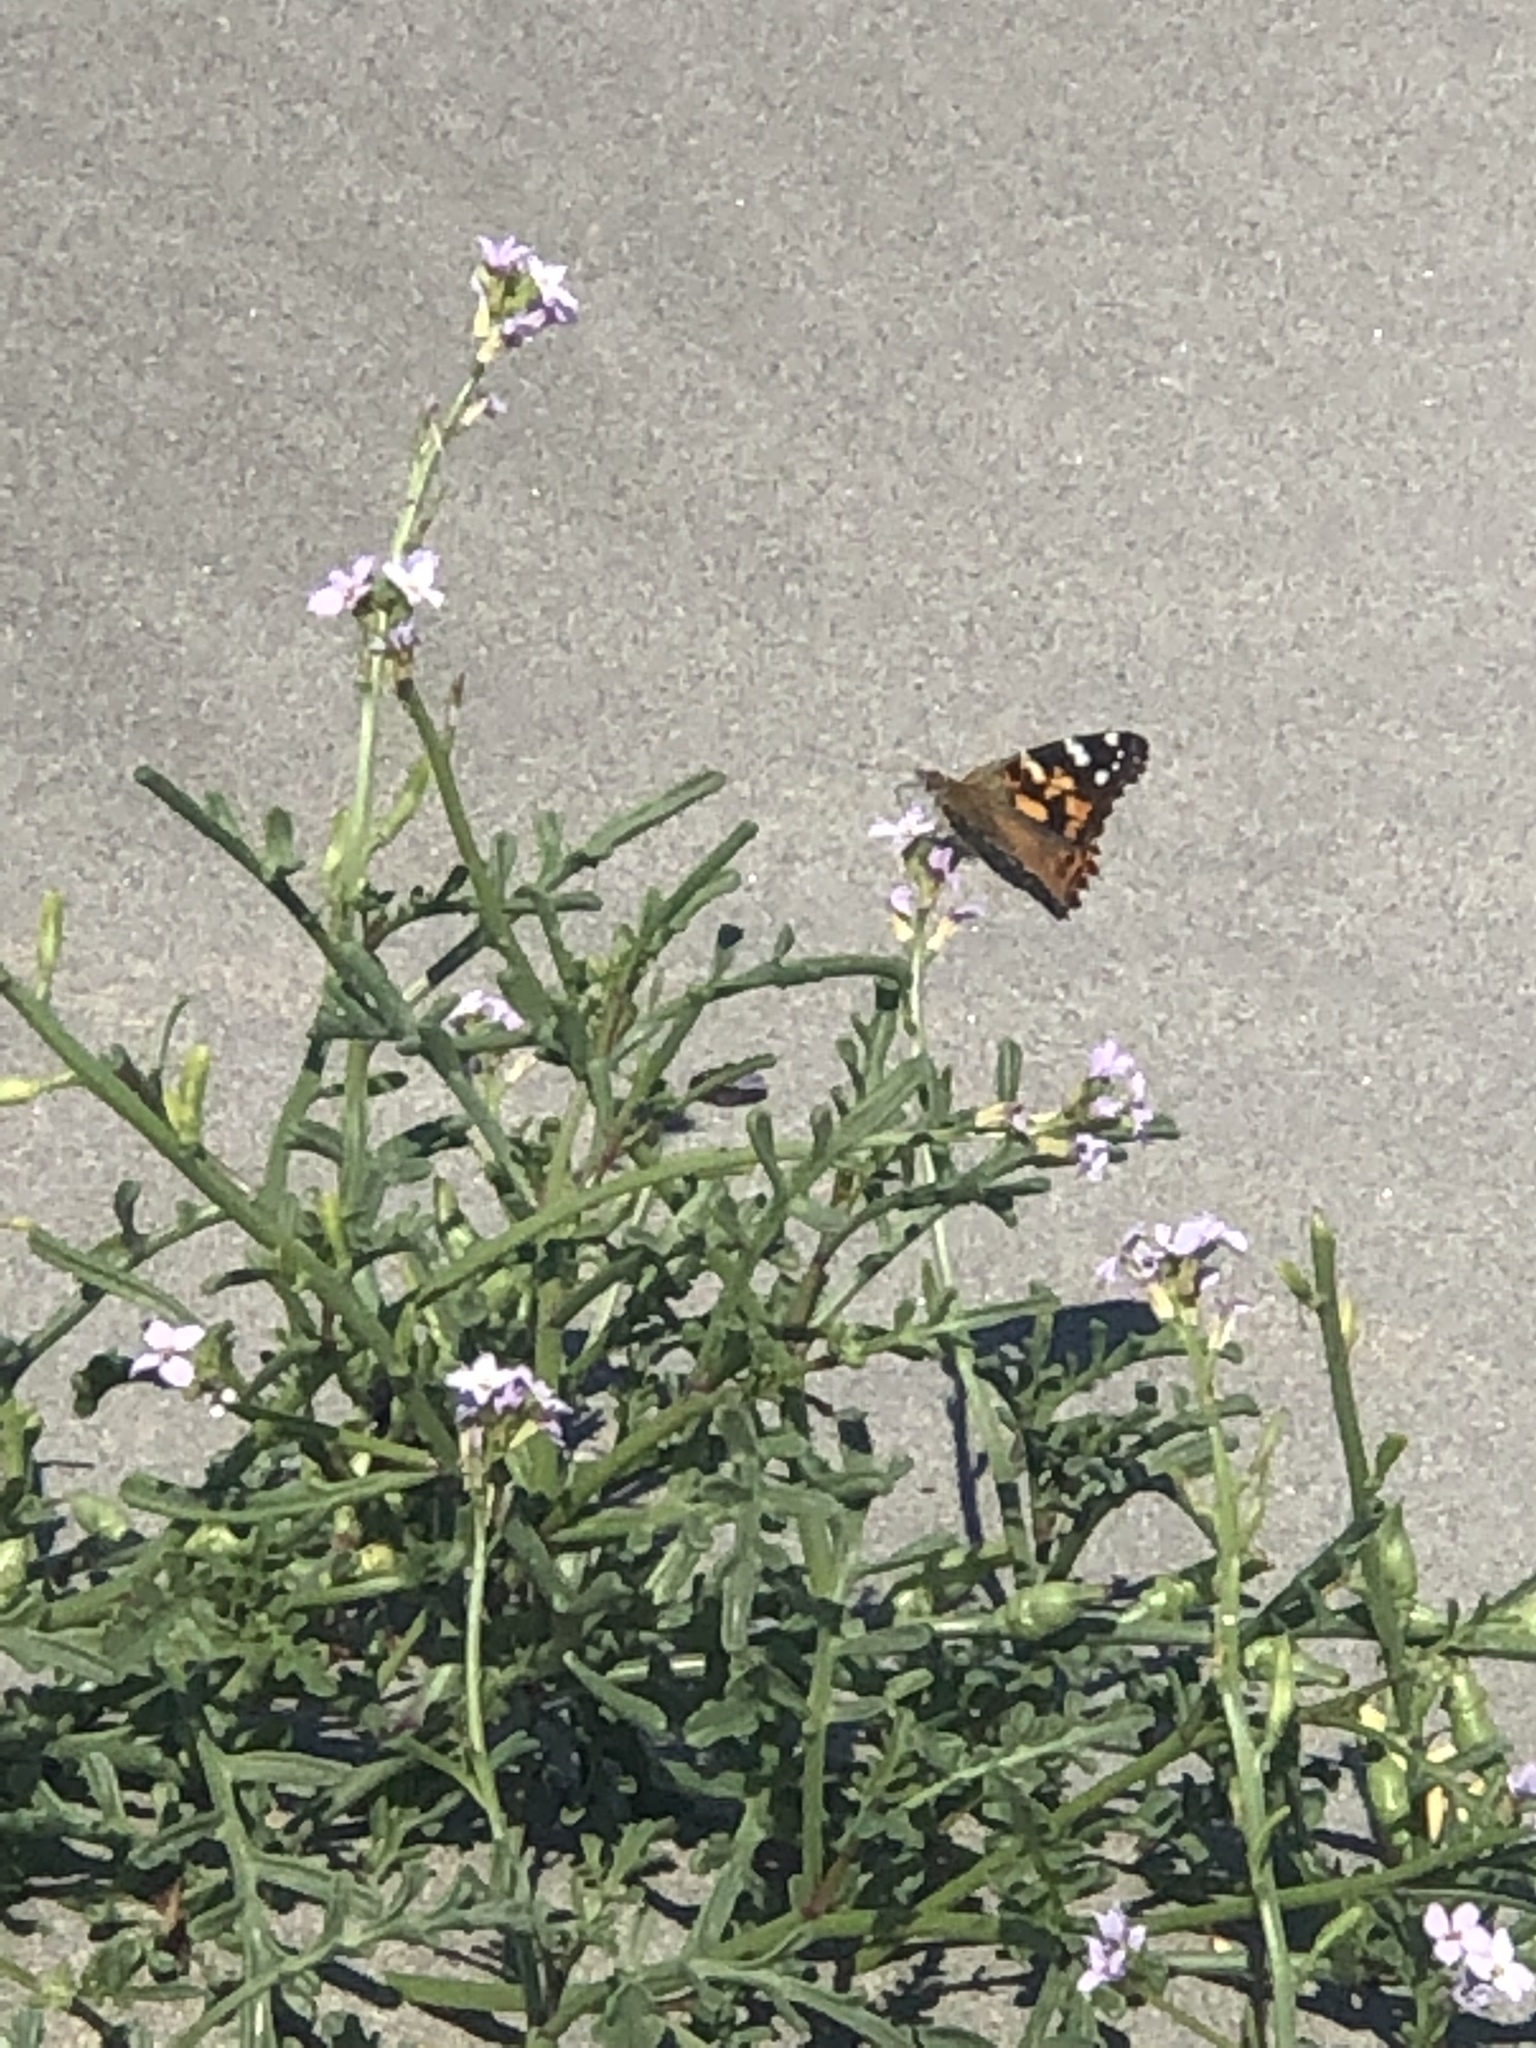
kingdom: Animalia
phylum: Arthropoda
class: Insecta
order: Lepidoptera
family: Nymphalidae
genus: Vanessa
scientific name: Vanessa cardui
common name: Painted lady
